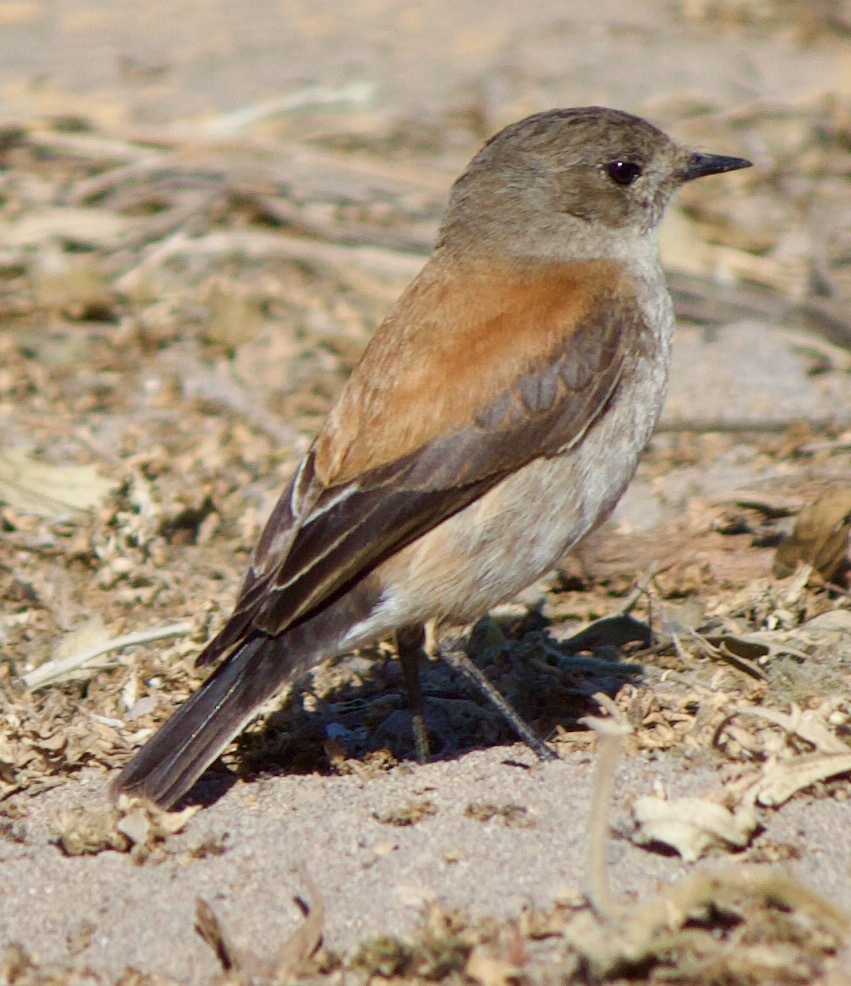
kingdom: Animalia
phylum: Chordata
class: Aves
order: Passeriformes
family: Tyrannidae
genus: Lessonia
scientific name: Lessonia rufa
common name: Austral negrito
